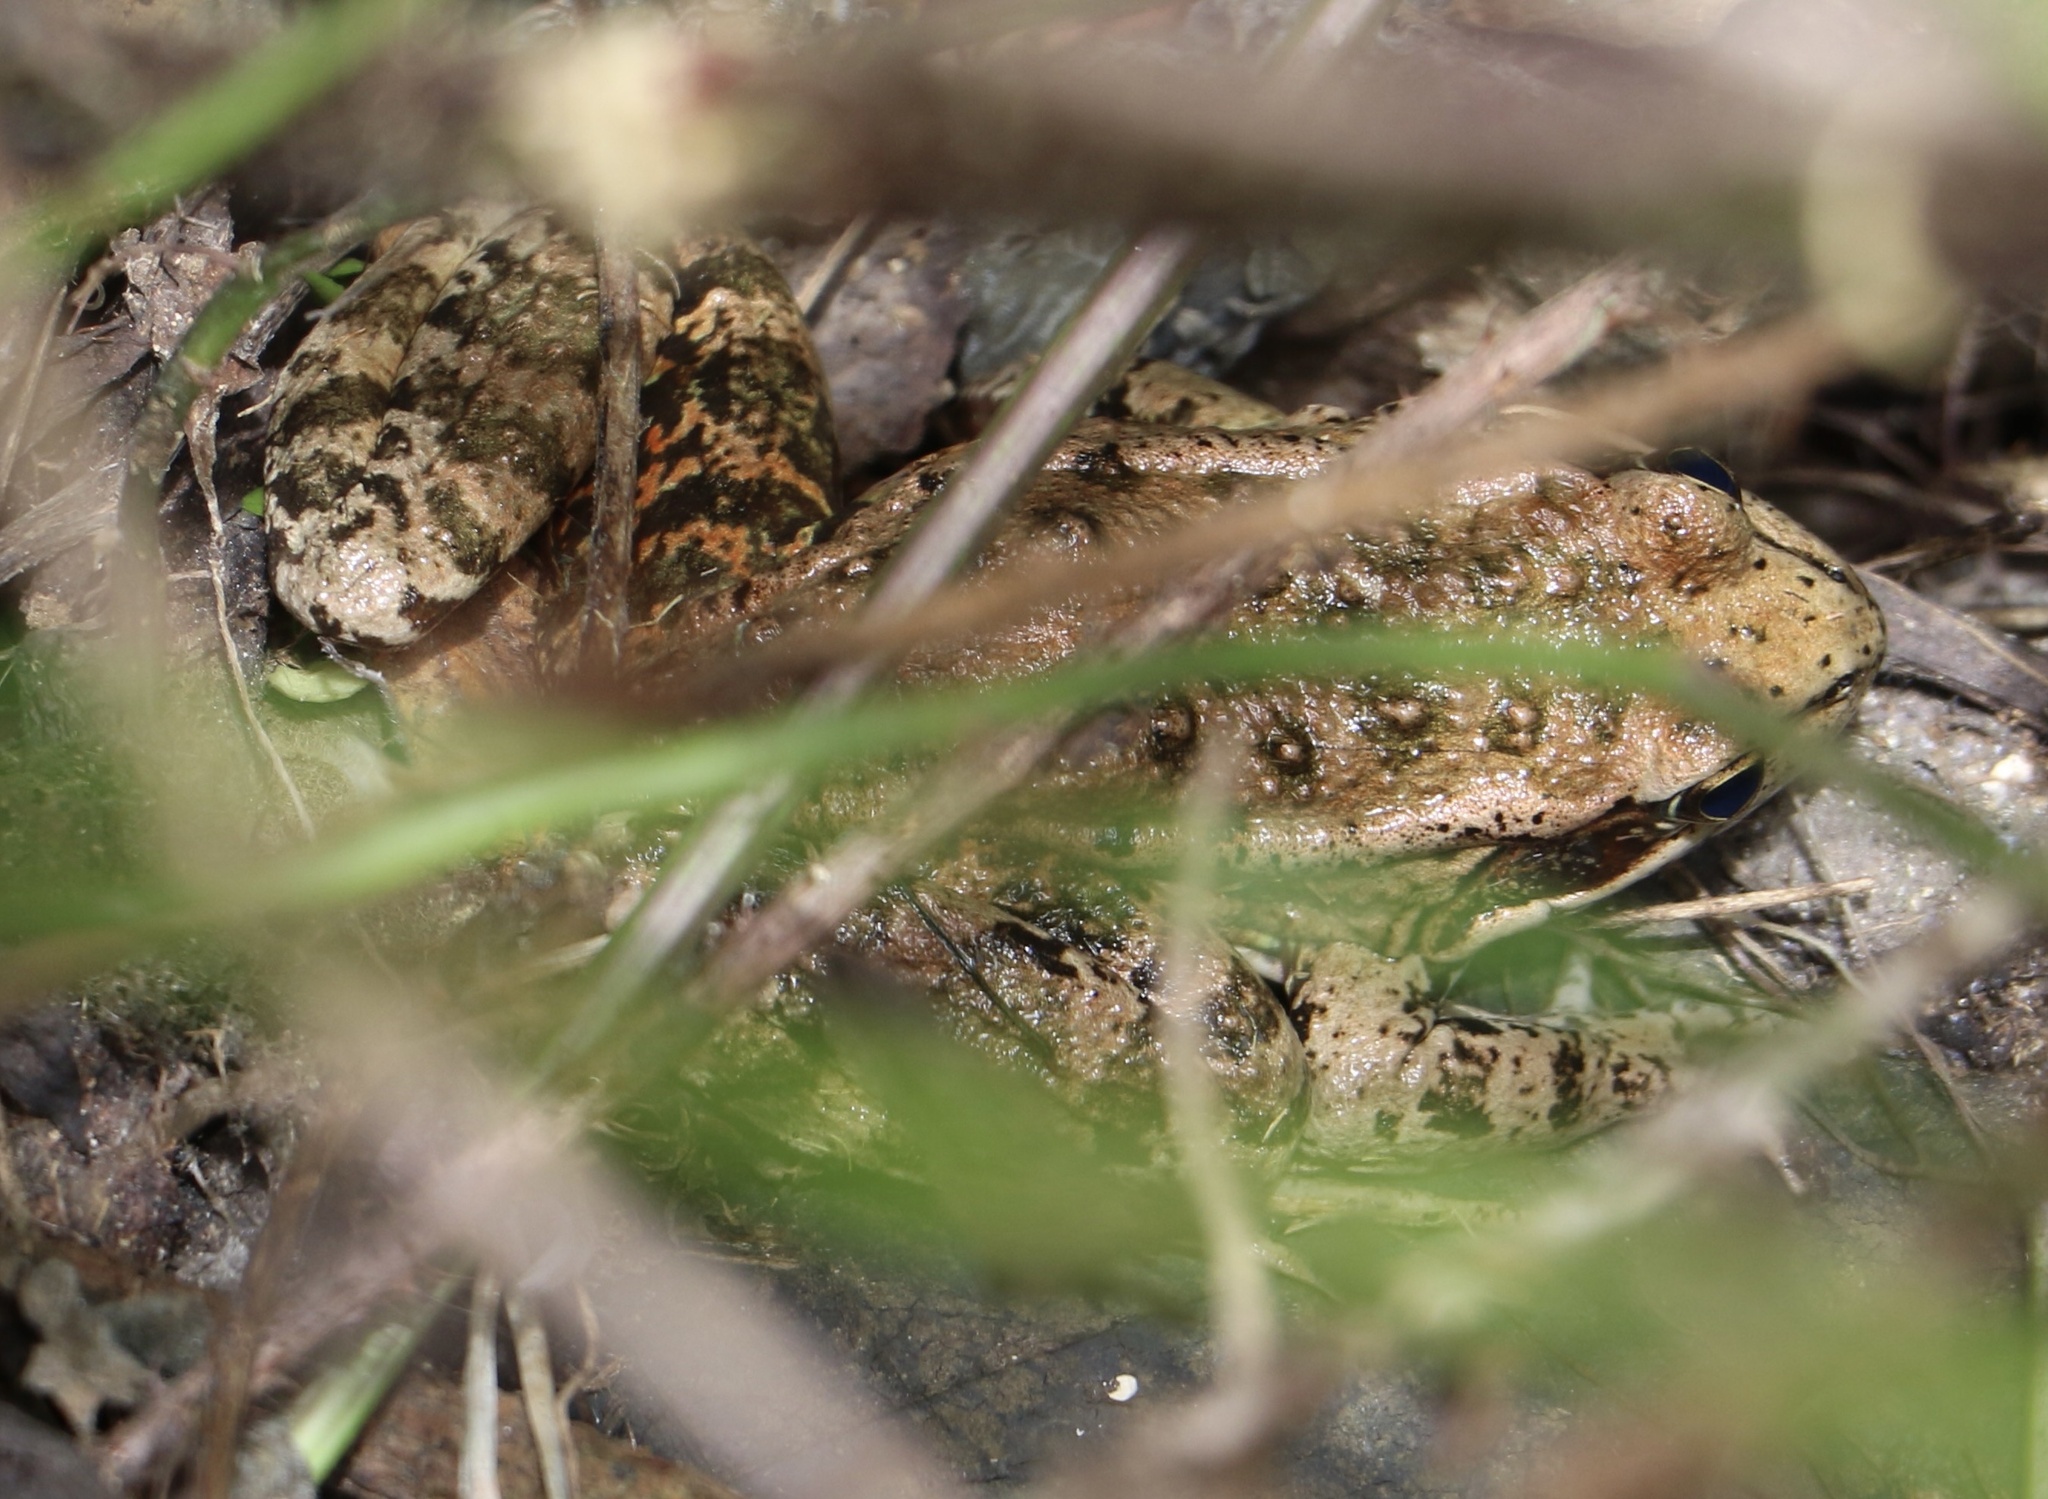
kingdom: Animalia
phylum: Chordata
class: Amphibia
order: Anura
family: Ranidae
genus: Rana
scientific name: Rana draytonii
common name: California red-legged frog
